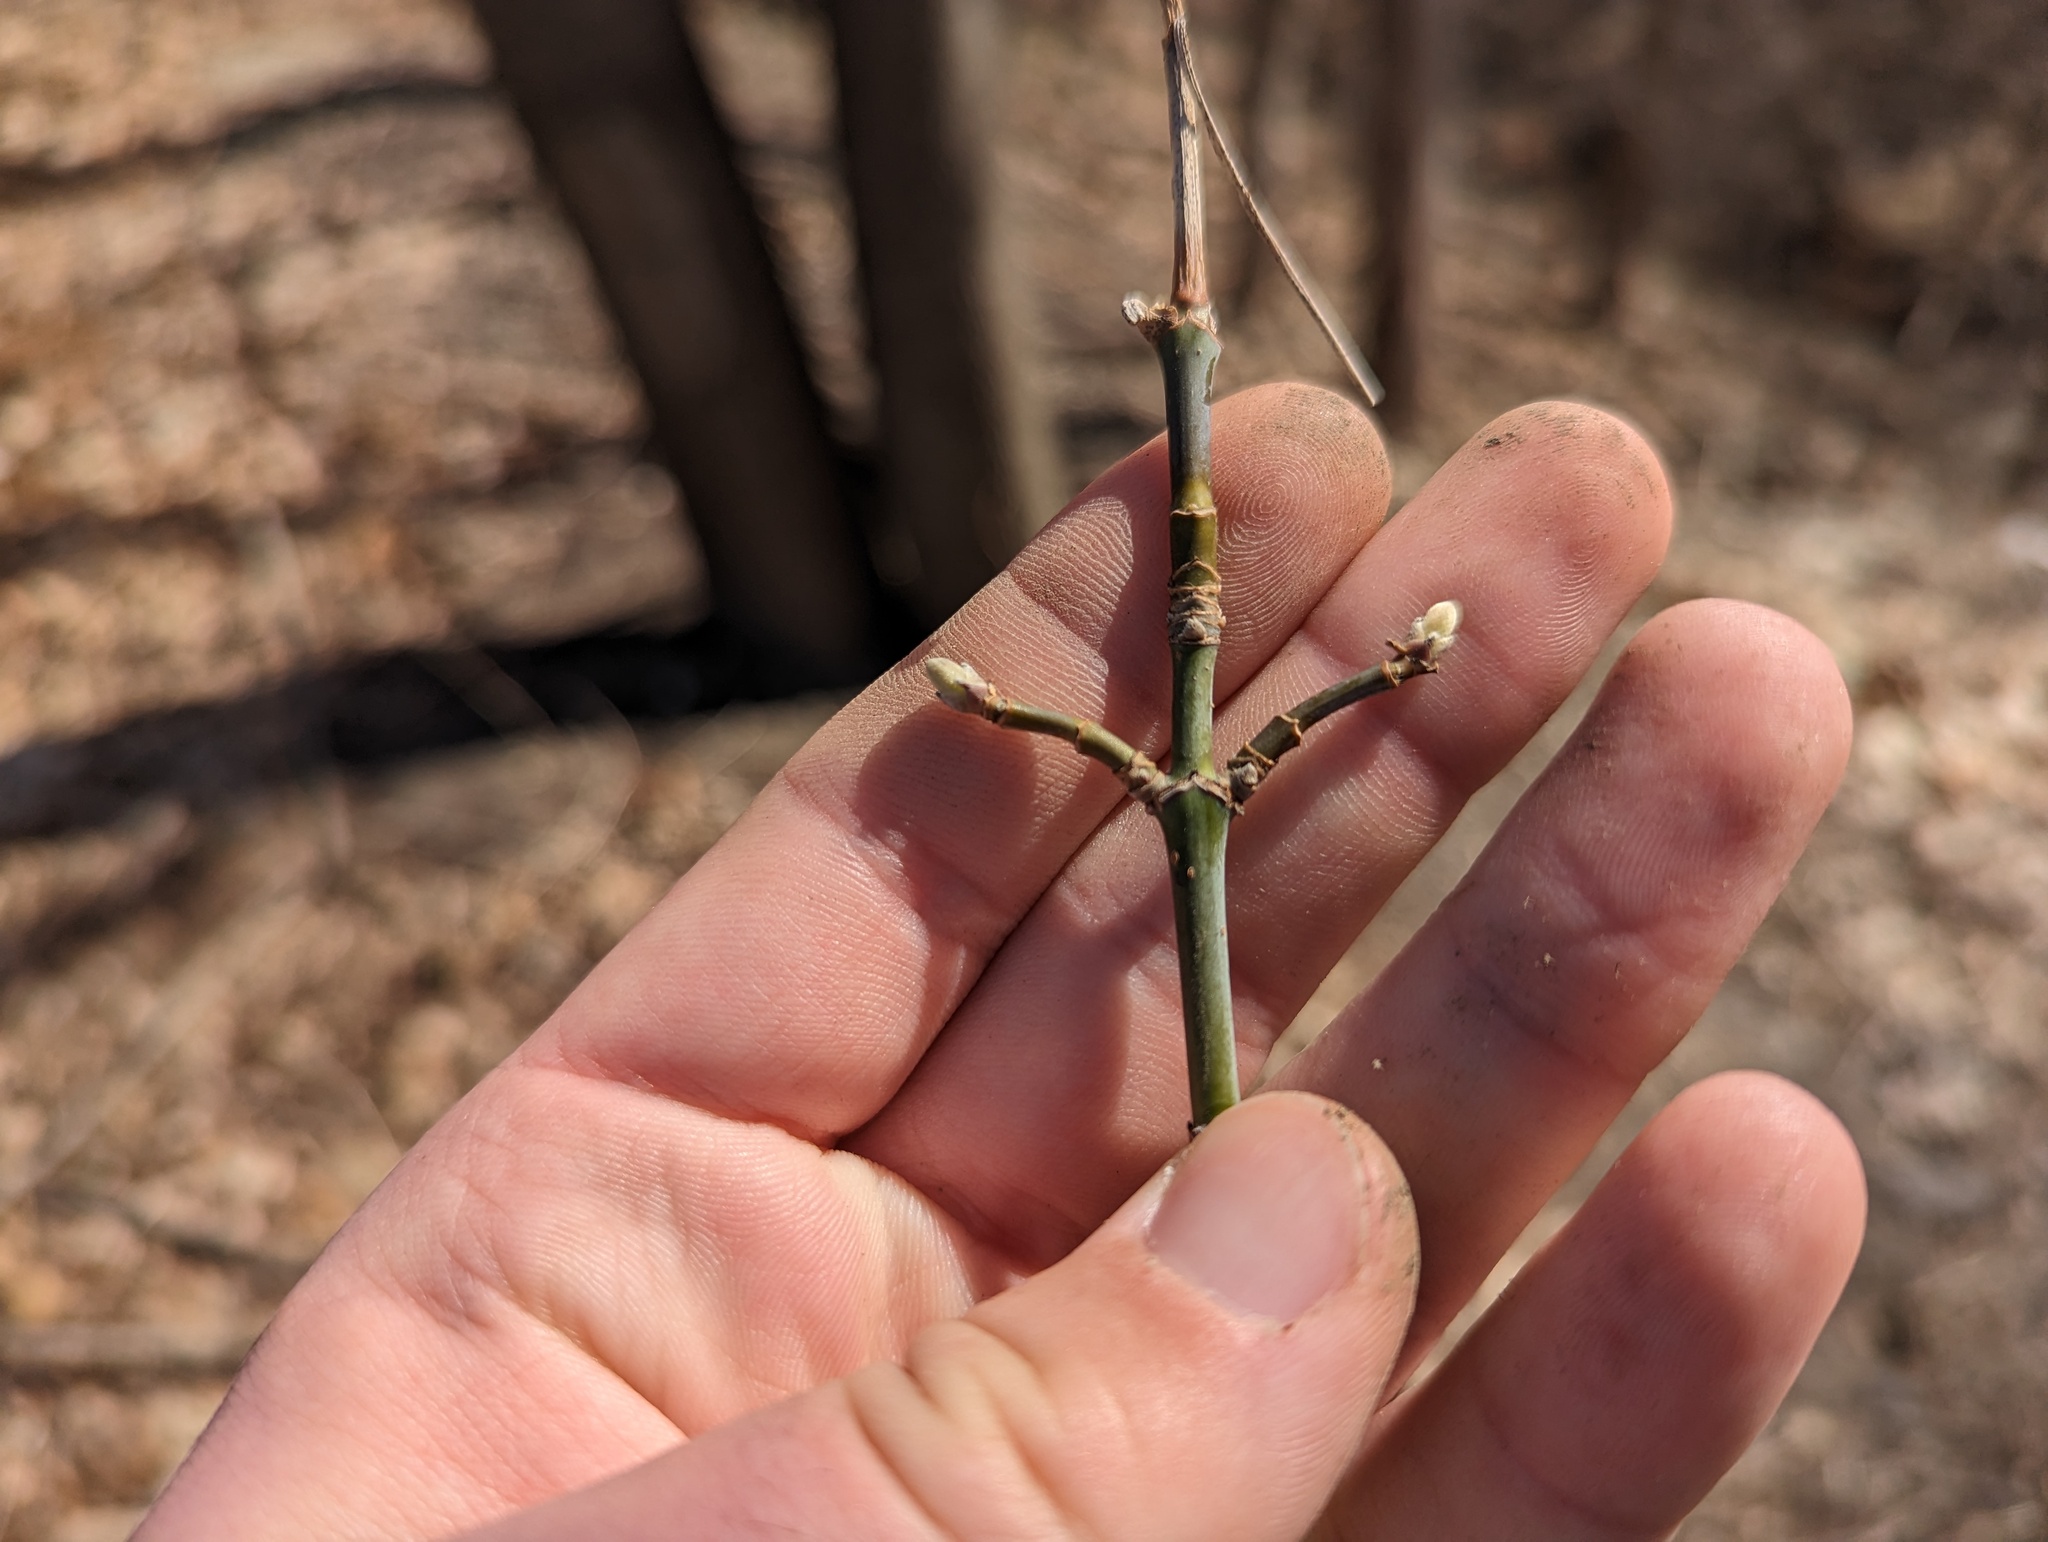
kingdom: Plantae
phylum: Tracheophyta
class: Magnoliopsida
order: Sapindales
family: Sapindaceae
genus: Acer
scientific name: Acer negundo
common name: Ashleaf maple
